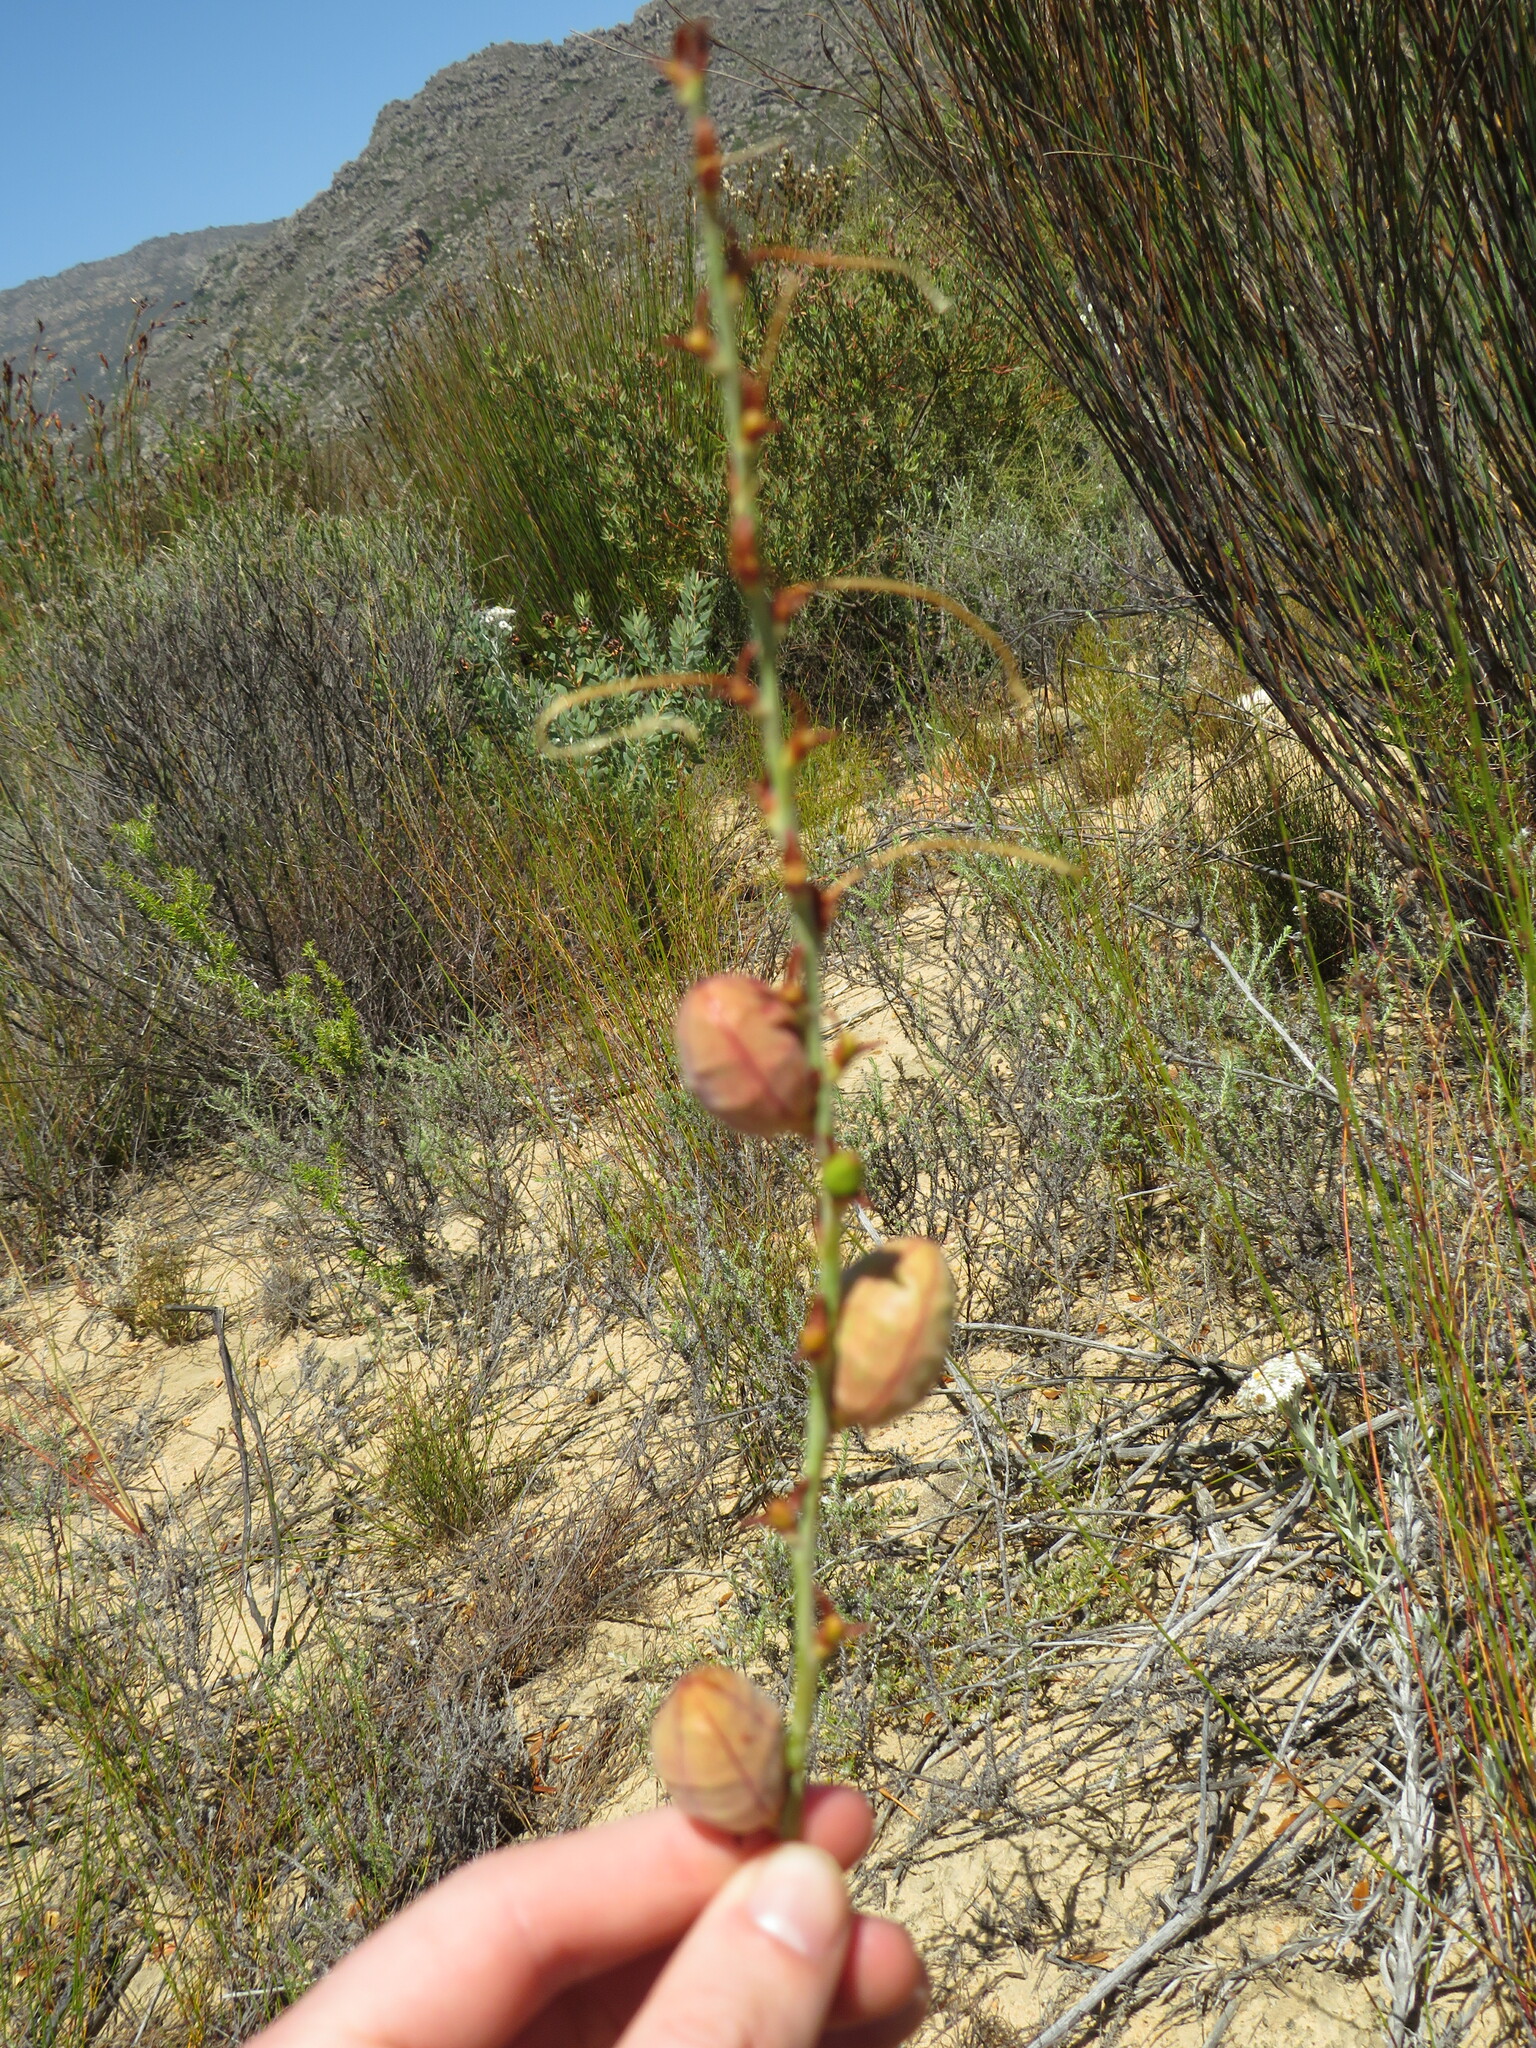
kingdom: Plantae
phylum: Tracheophyta
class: Liliopsida
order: Asparagales
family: Iridaceae
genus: Tritoniopsis
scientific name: Tritoniopsis nervosa
